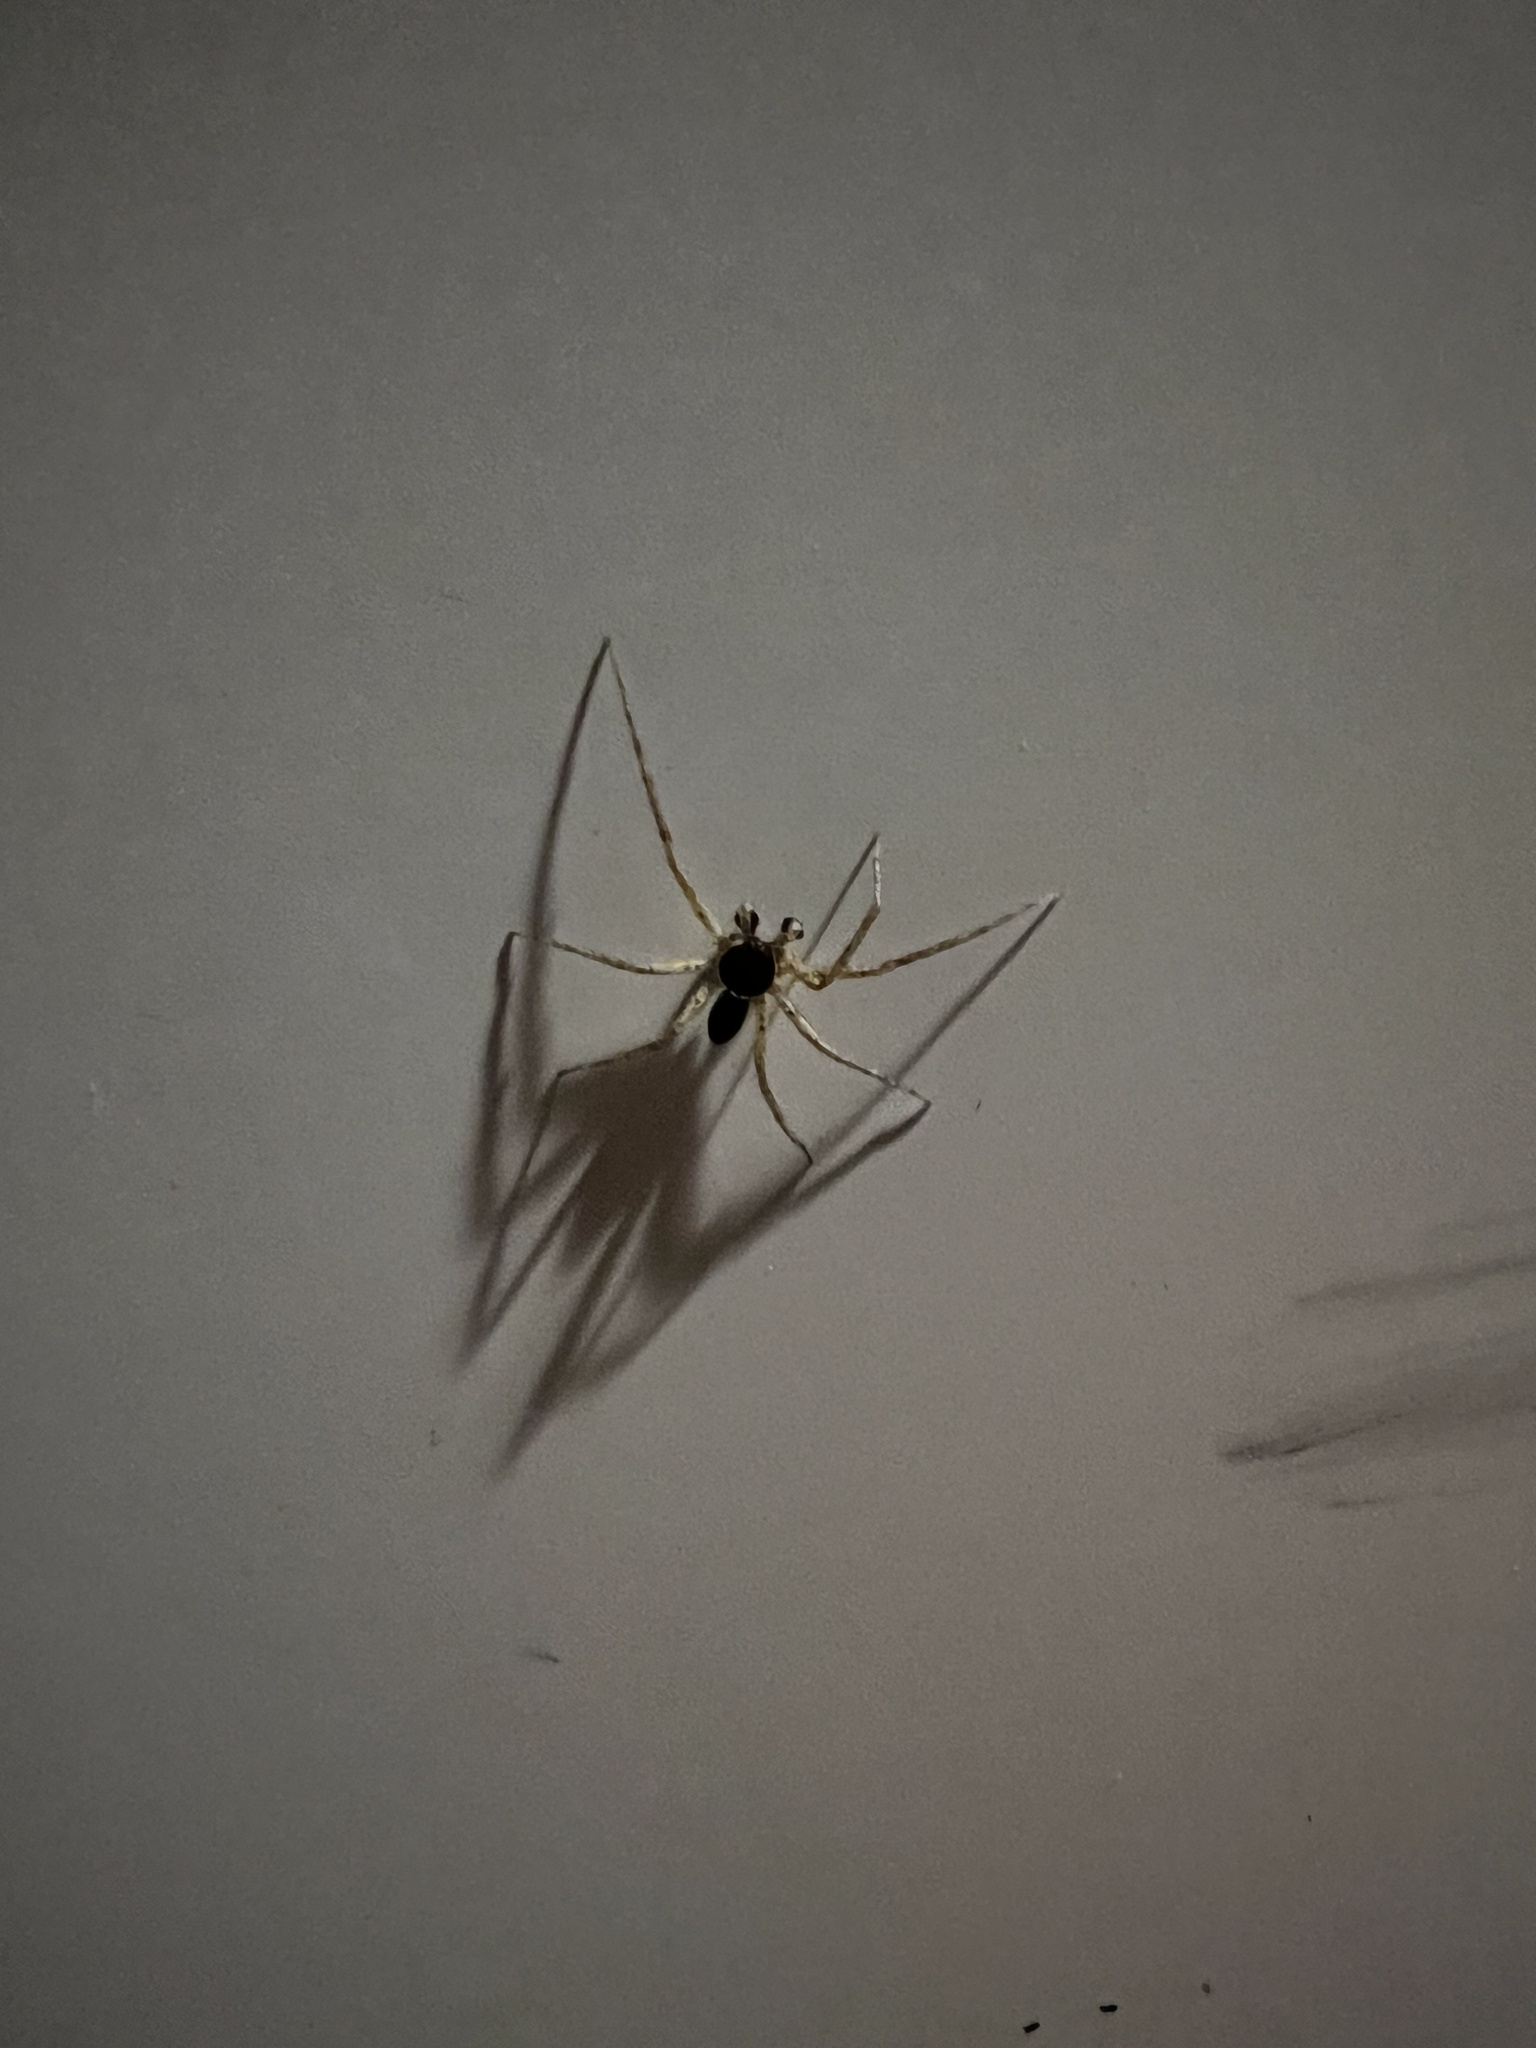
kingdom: Animalia
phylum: Arthropoda
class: Arachnida
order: Araneae
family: Philodromidae
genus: Philodromus
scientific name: Philodromus dispar
